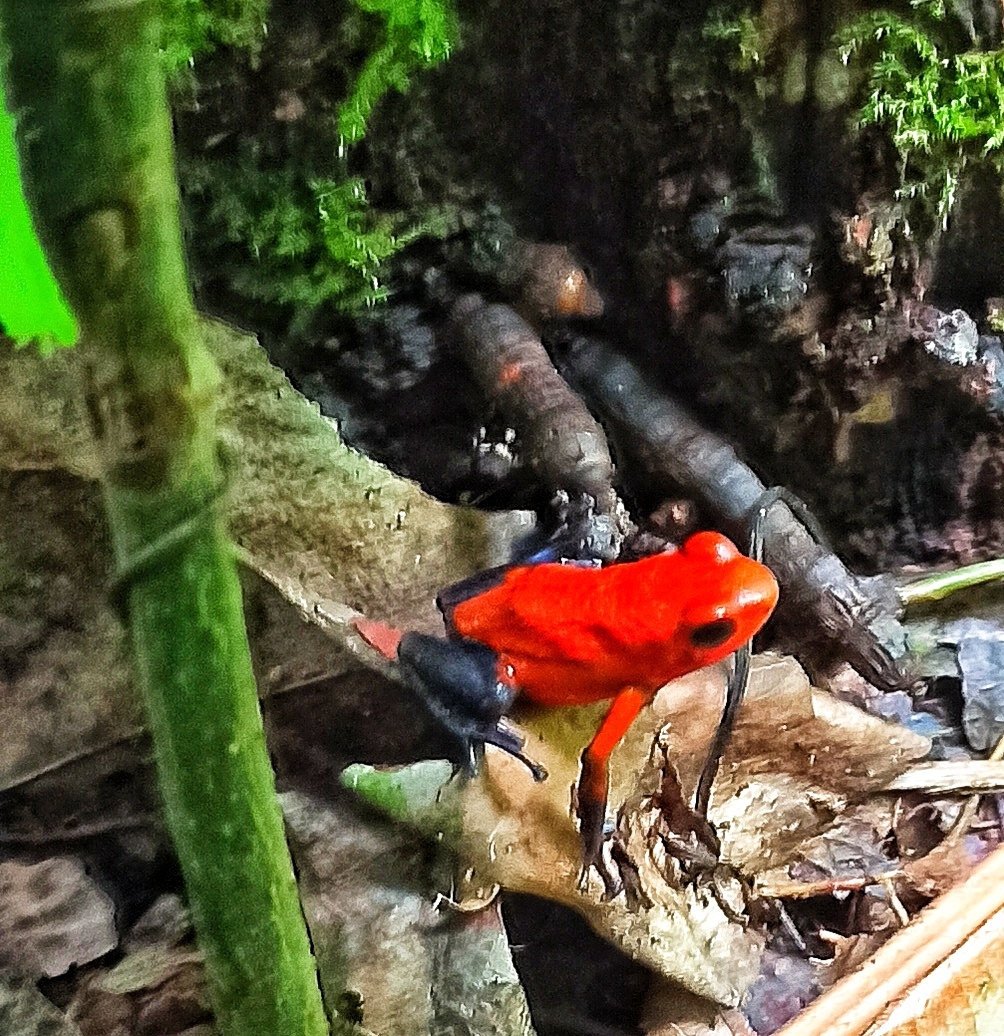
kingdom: Animalia
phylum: Chordata
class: Amphibia
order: Anura
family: Dendrobatidae
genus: Oophaga
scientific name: Oophaga pumilio
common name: Flaming poison frog
